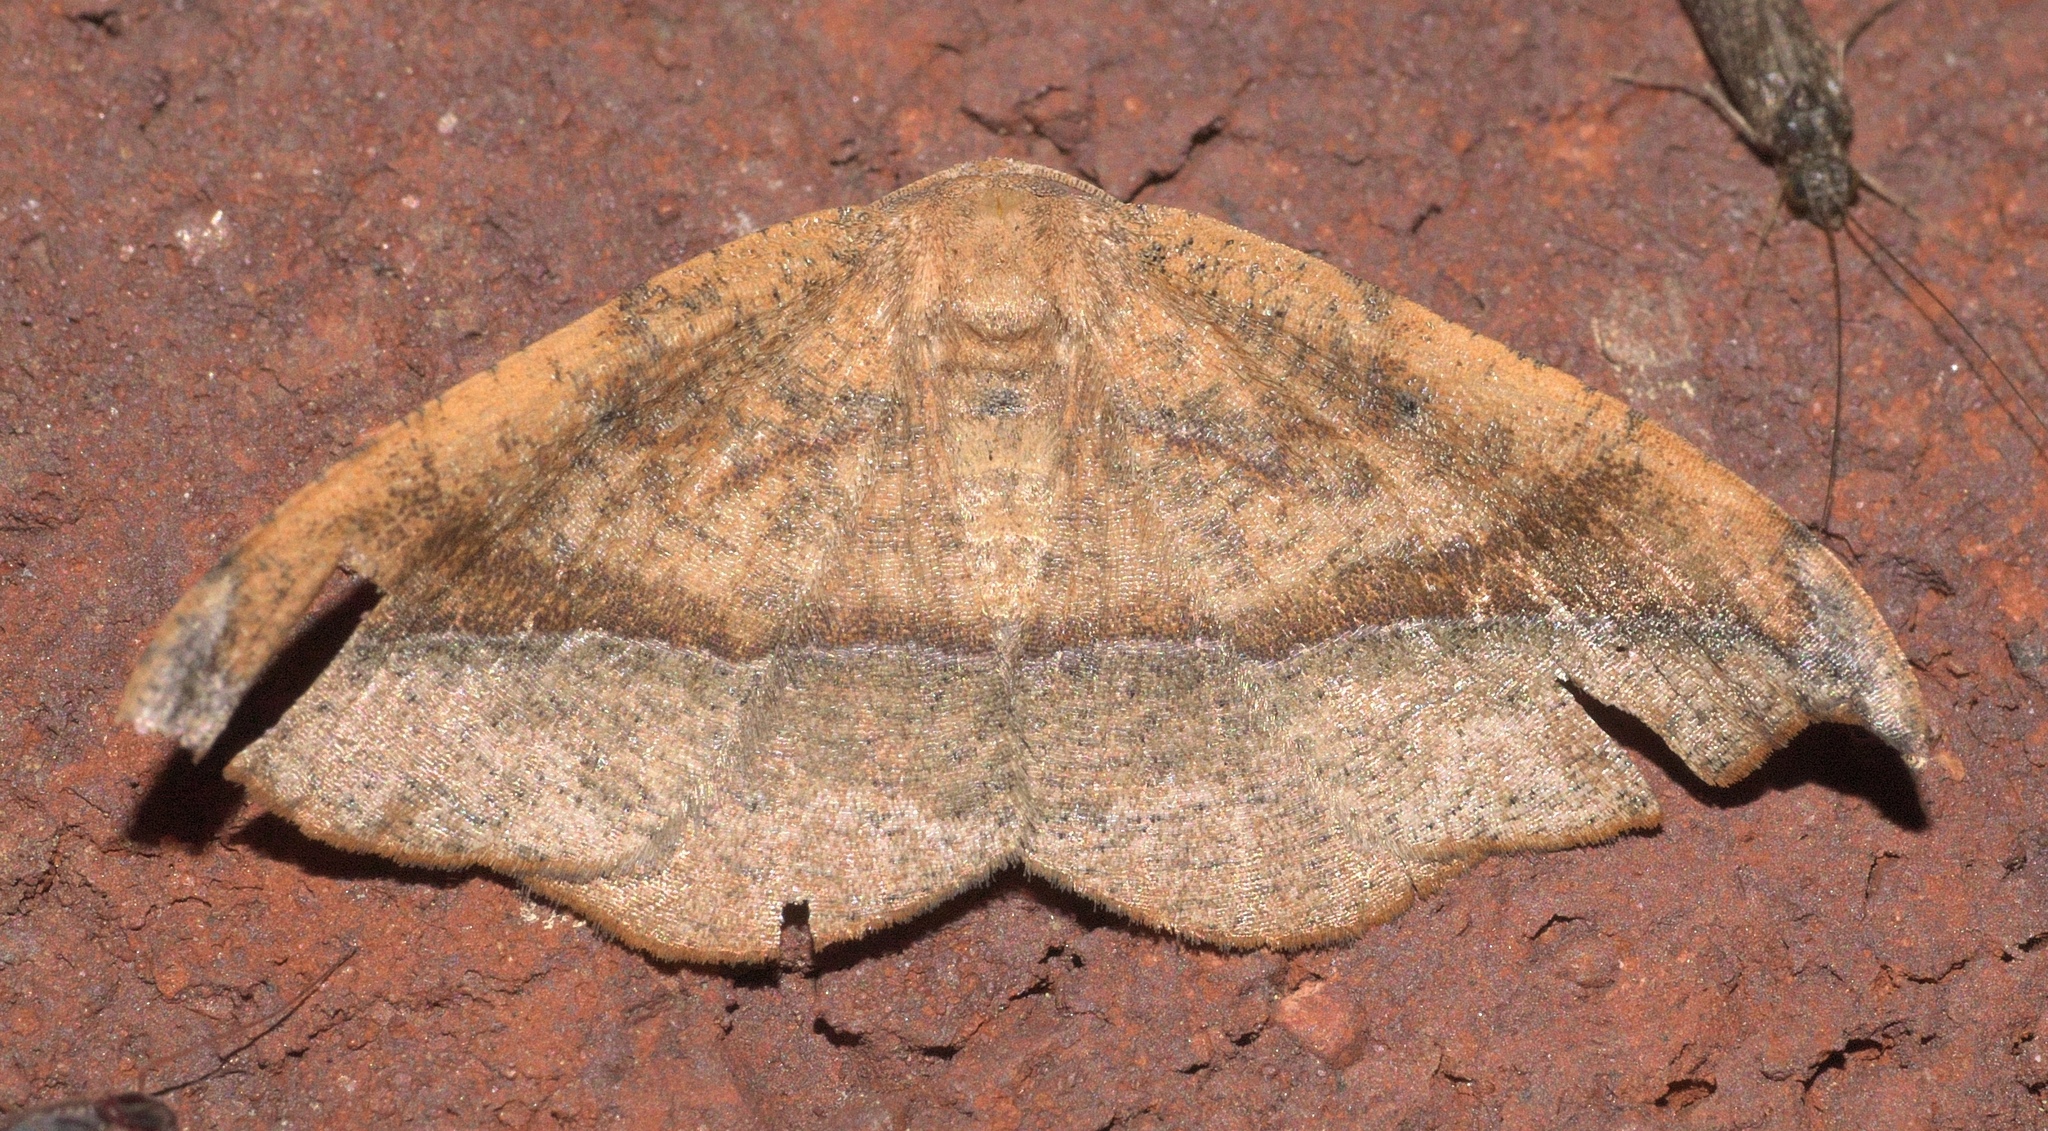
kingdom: Animalia
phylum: Arthropoda
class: Insecta
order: Lepidoptera
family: Geometridae
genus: Patalene
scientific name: Patalene olyzonaria
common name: Juniper geometer moth
